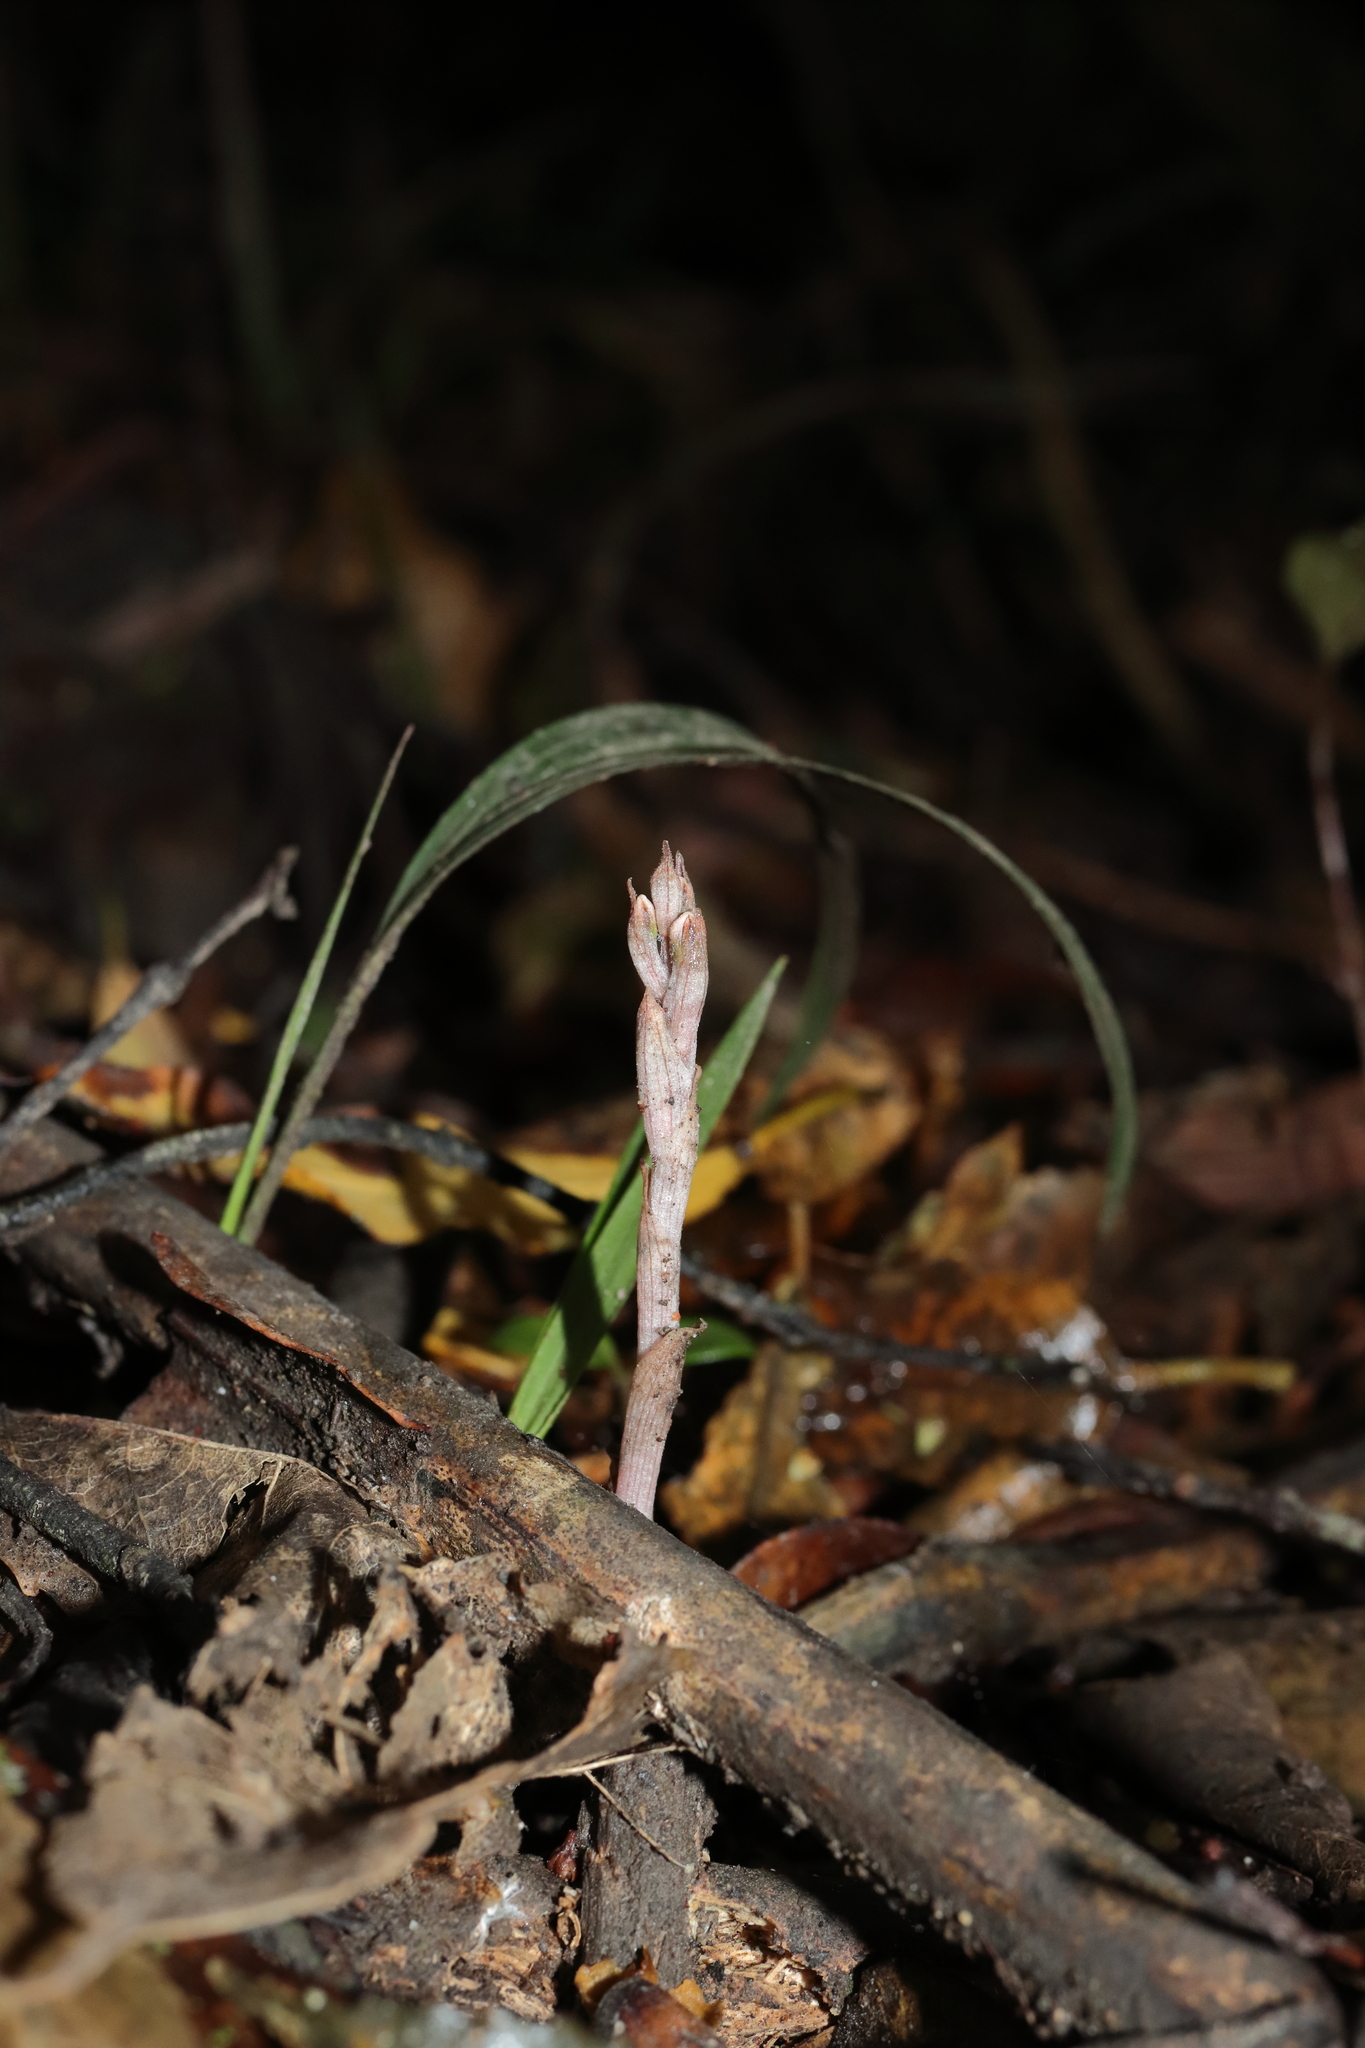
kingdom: Plantae
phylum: Tracheophyta
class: Liliopsida
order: Asparagales
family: Orchidaceae
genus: Danhatchia
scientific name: Danhatchia australis
